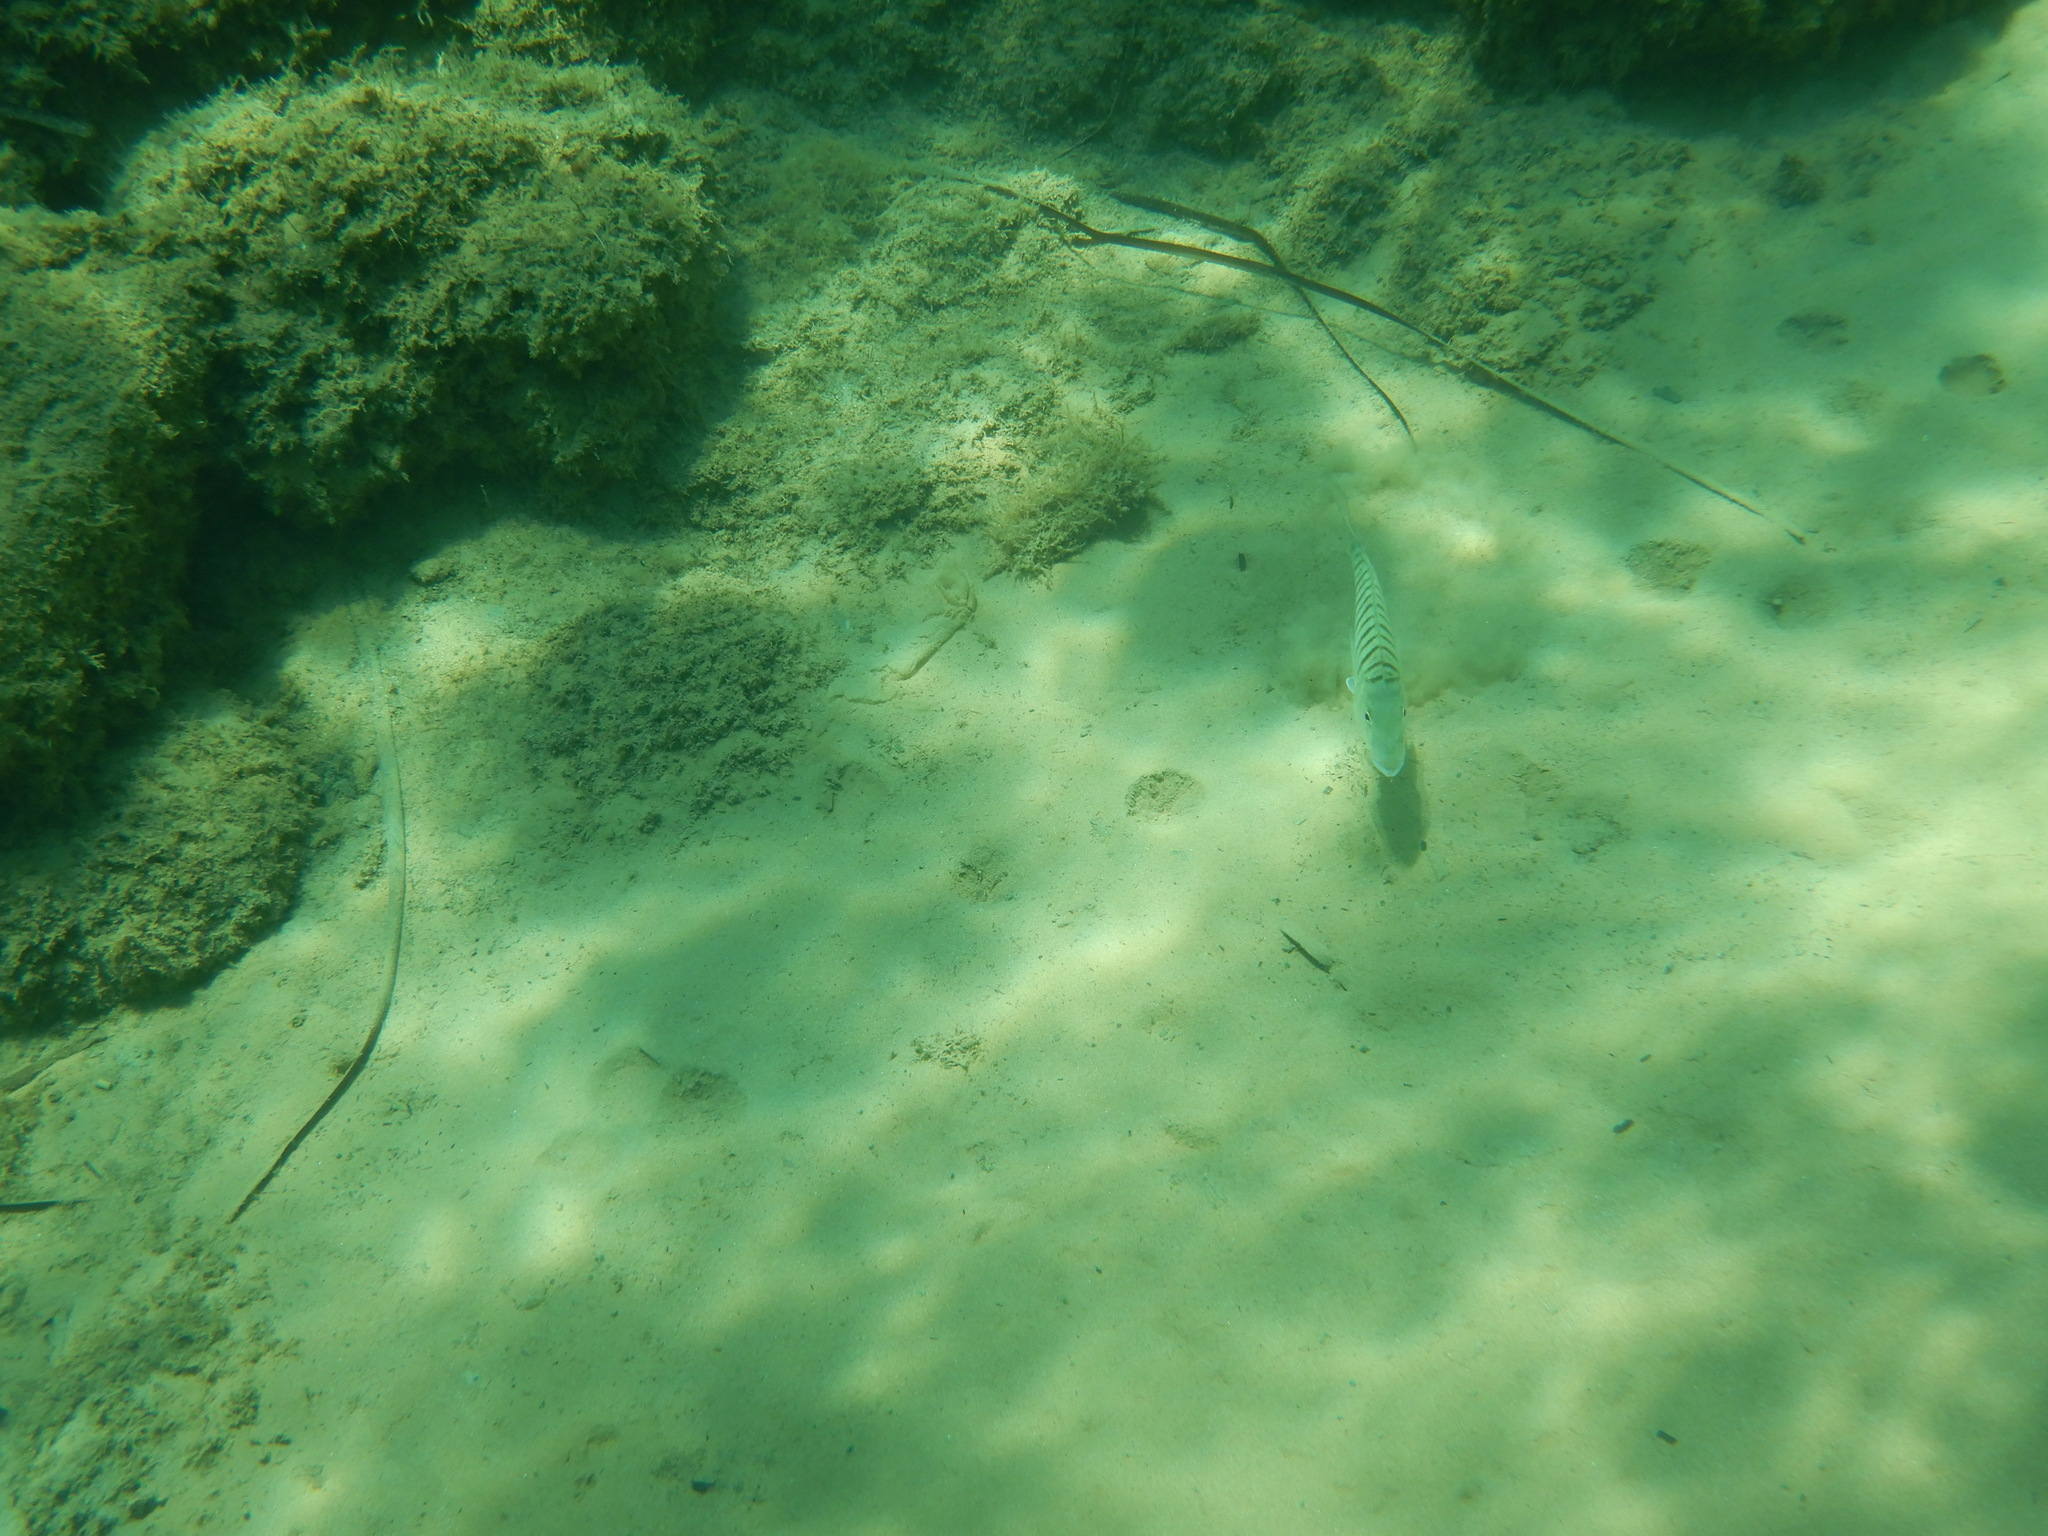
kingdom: Animalia
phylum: Chordata
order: Perciformes
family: Sparidae
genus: Lithognathus
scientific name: Lithognathus mormyrus
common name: Sand steenbras
